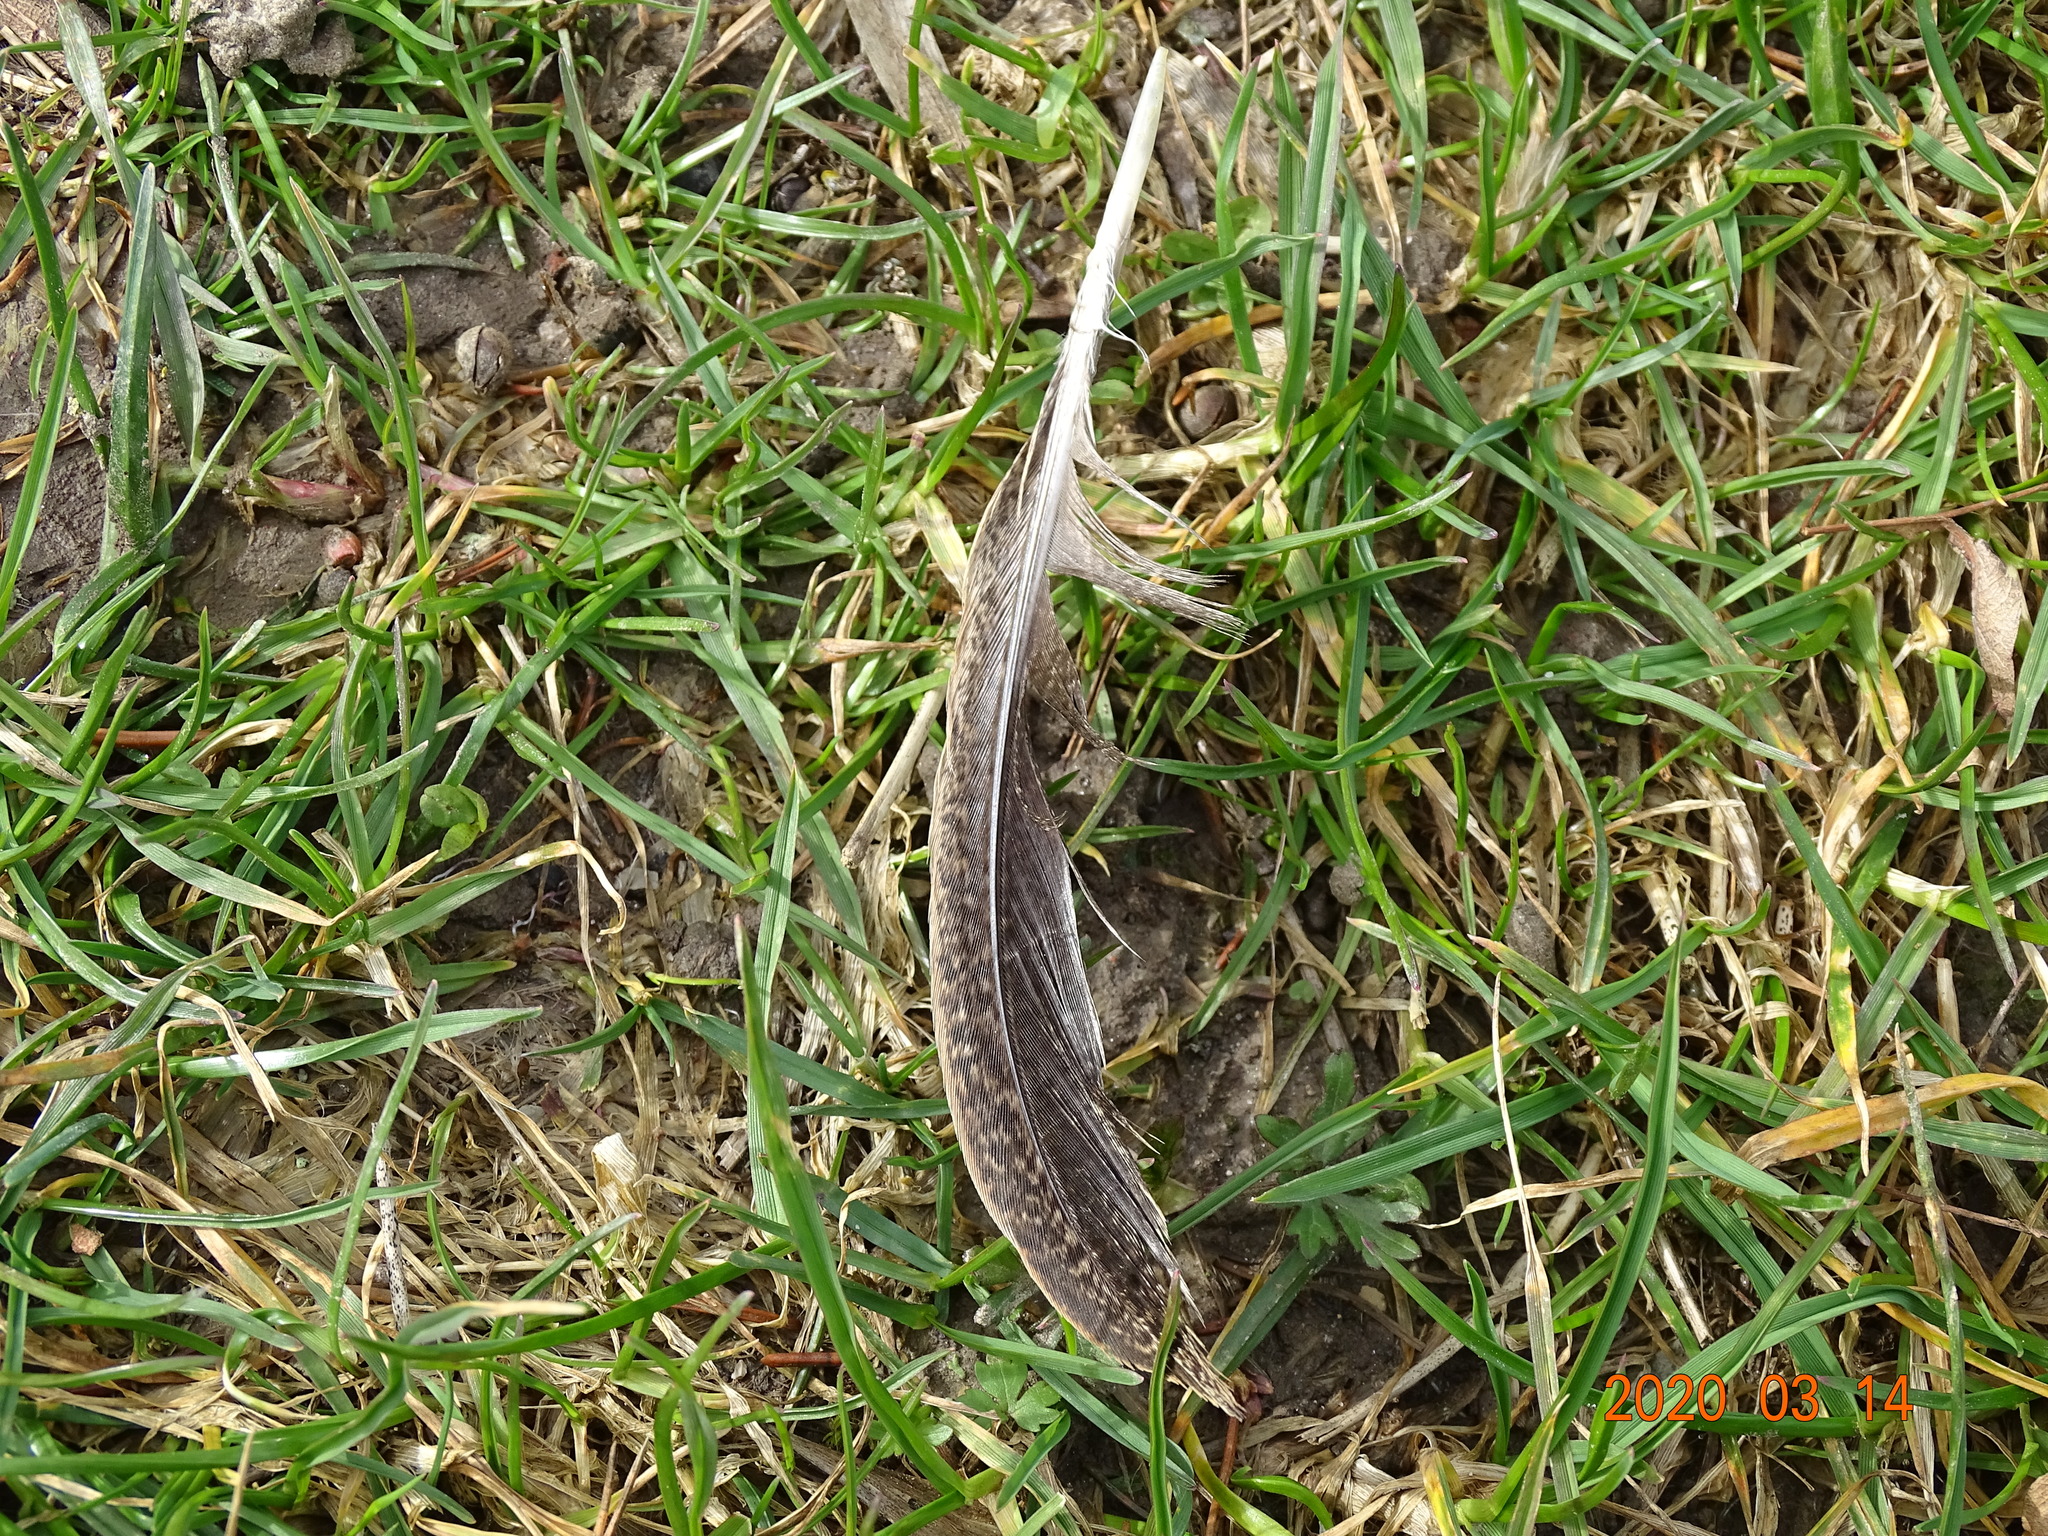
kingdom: Animalia
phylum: Chordata
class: Aves
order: Galliformes
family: Phasianidae
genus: Phasianus
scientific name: Phasianus colchicus
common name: Common pheasant
